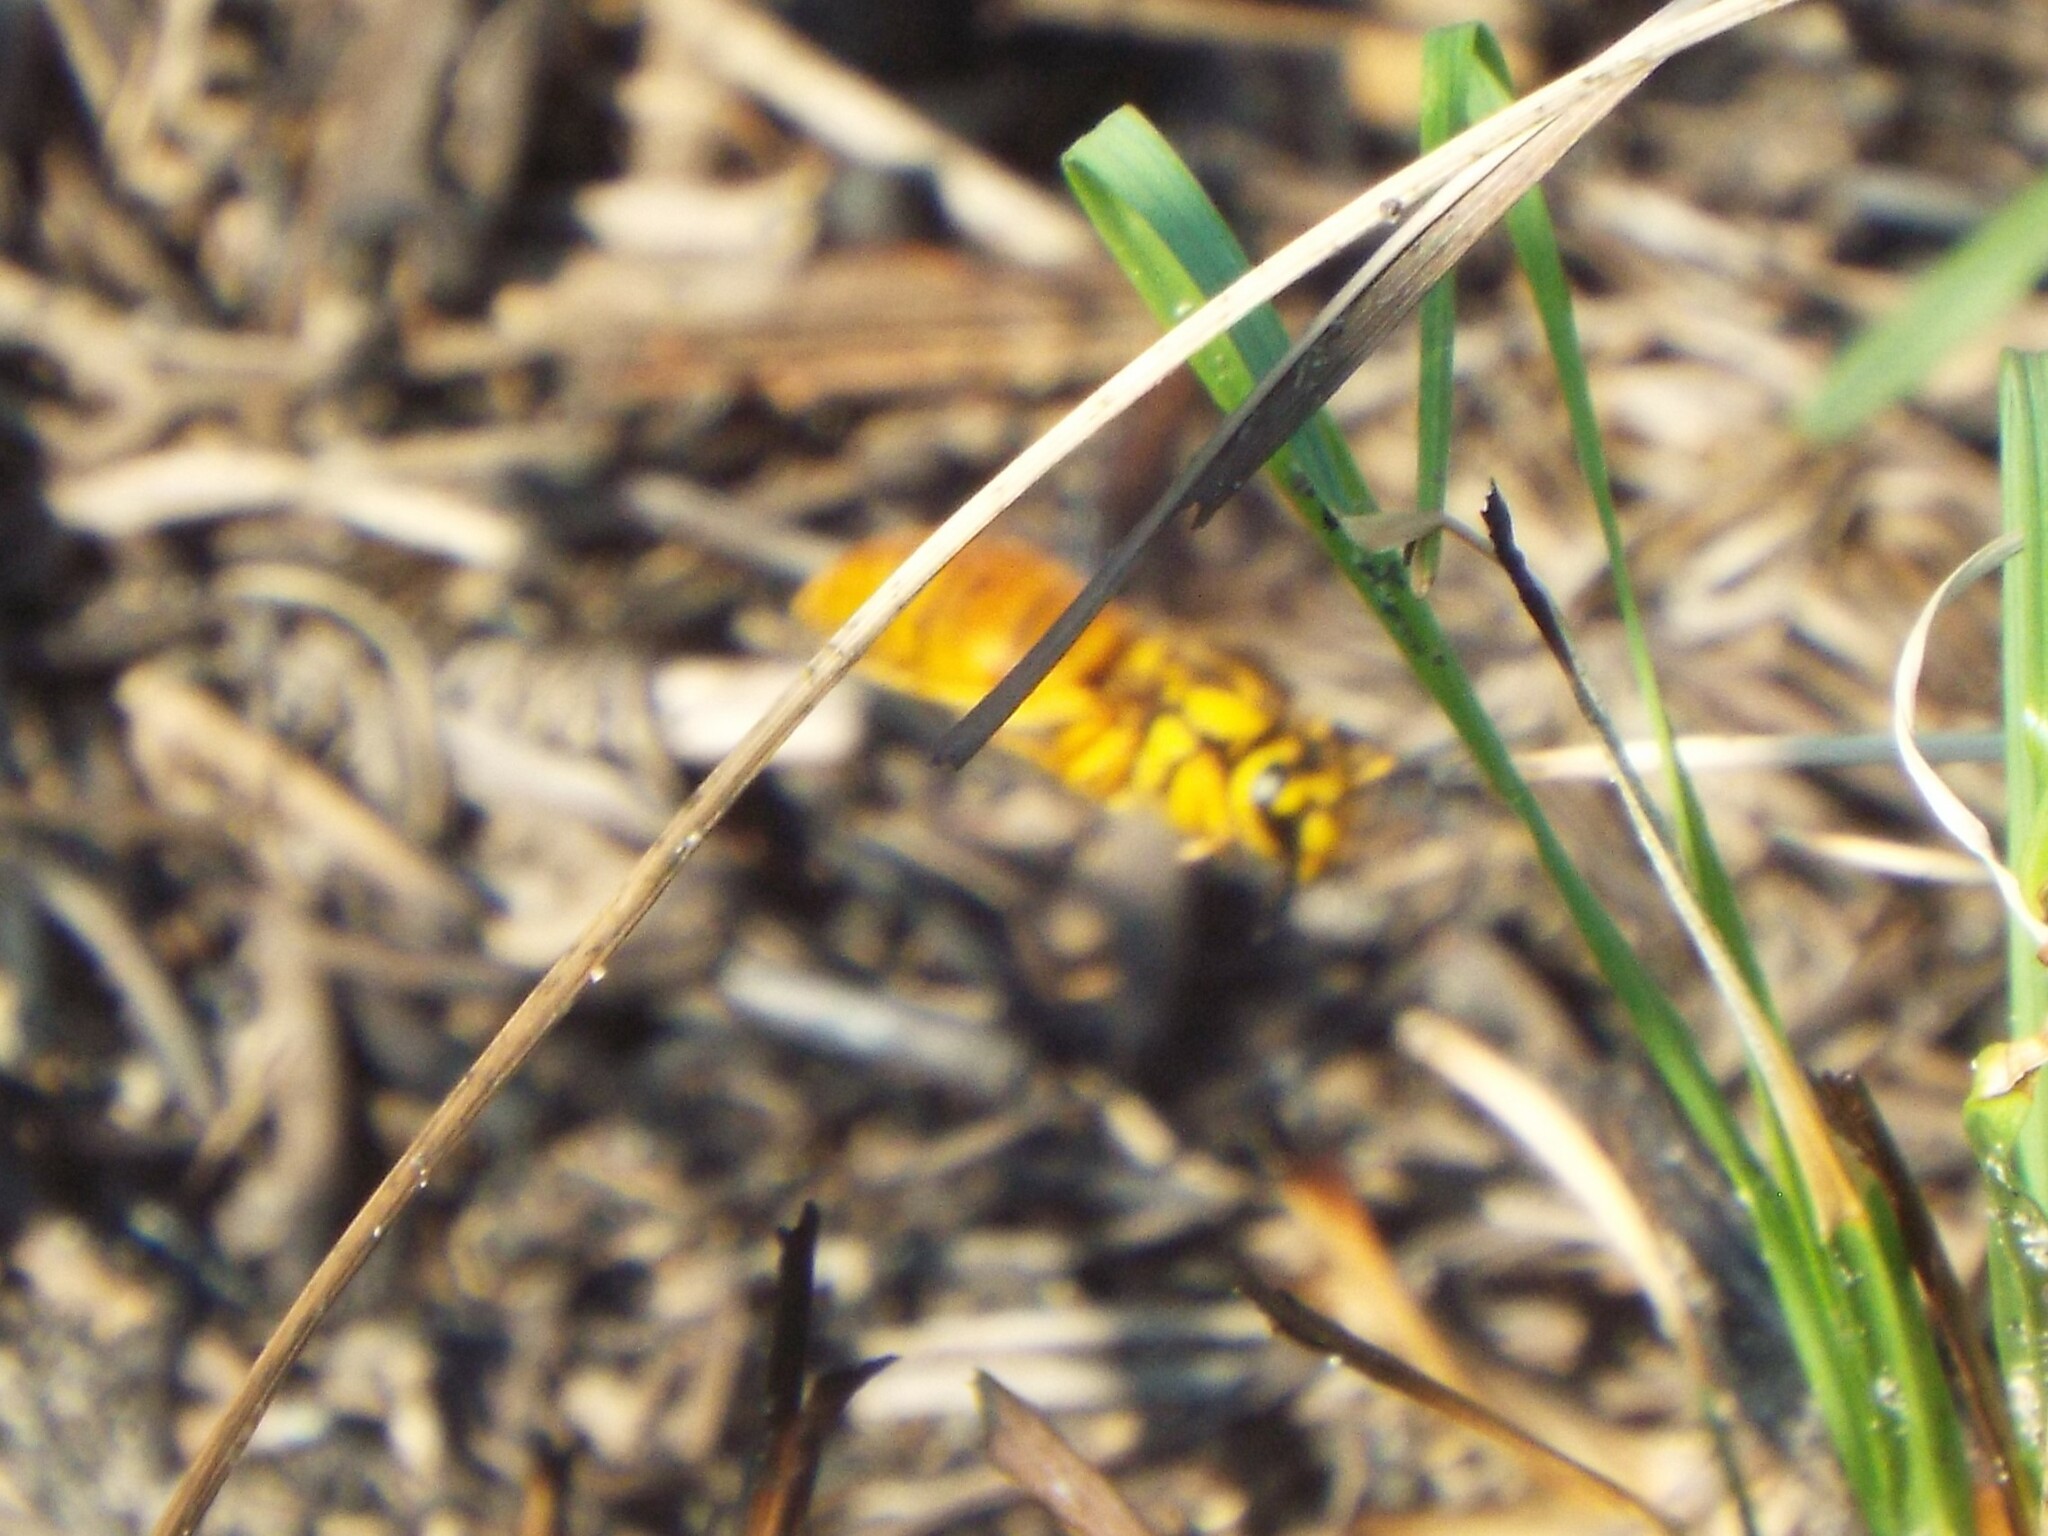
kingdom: Animalia
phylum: Arthropoda
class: Insecta
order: Hymenoptera
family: Vespidae
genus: Vespula
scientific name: Vespula squamosa
